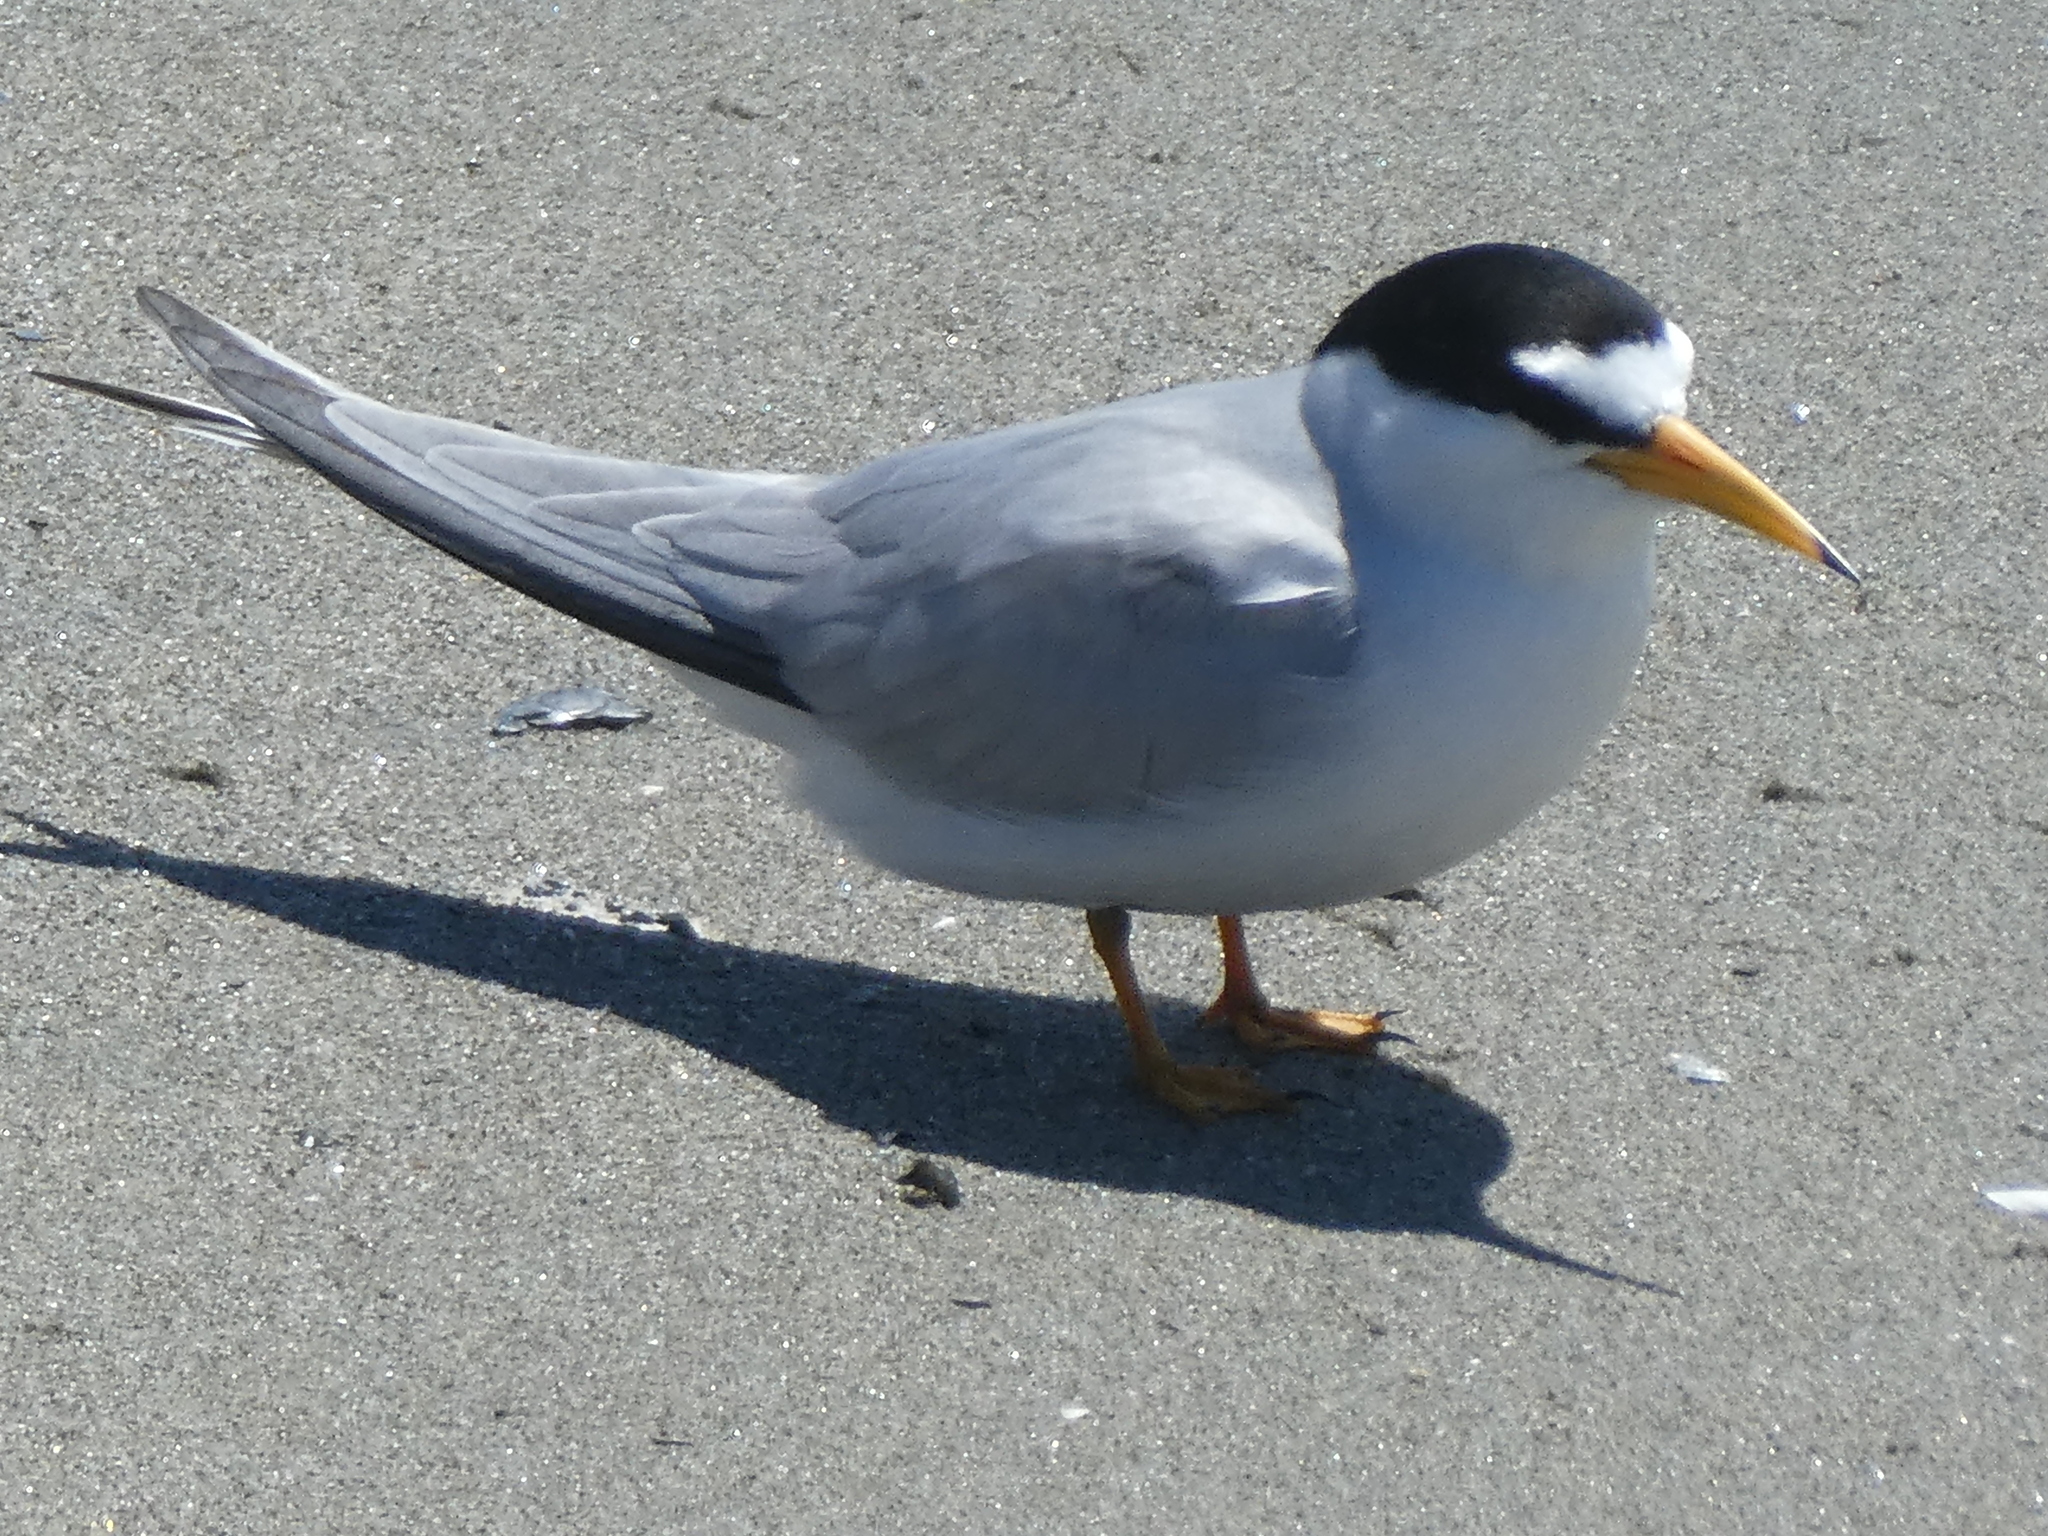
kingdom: Animalia
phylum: Chordata
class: Aves
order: Charadriiformes
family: Laridae
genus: Sternula
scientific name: Sternula antillarum
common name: Least tern
